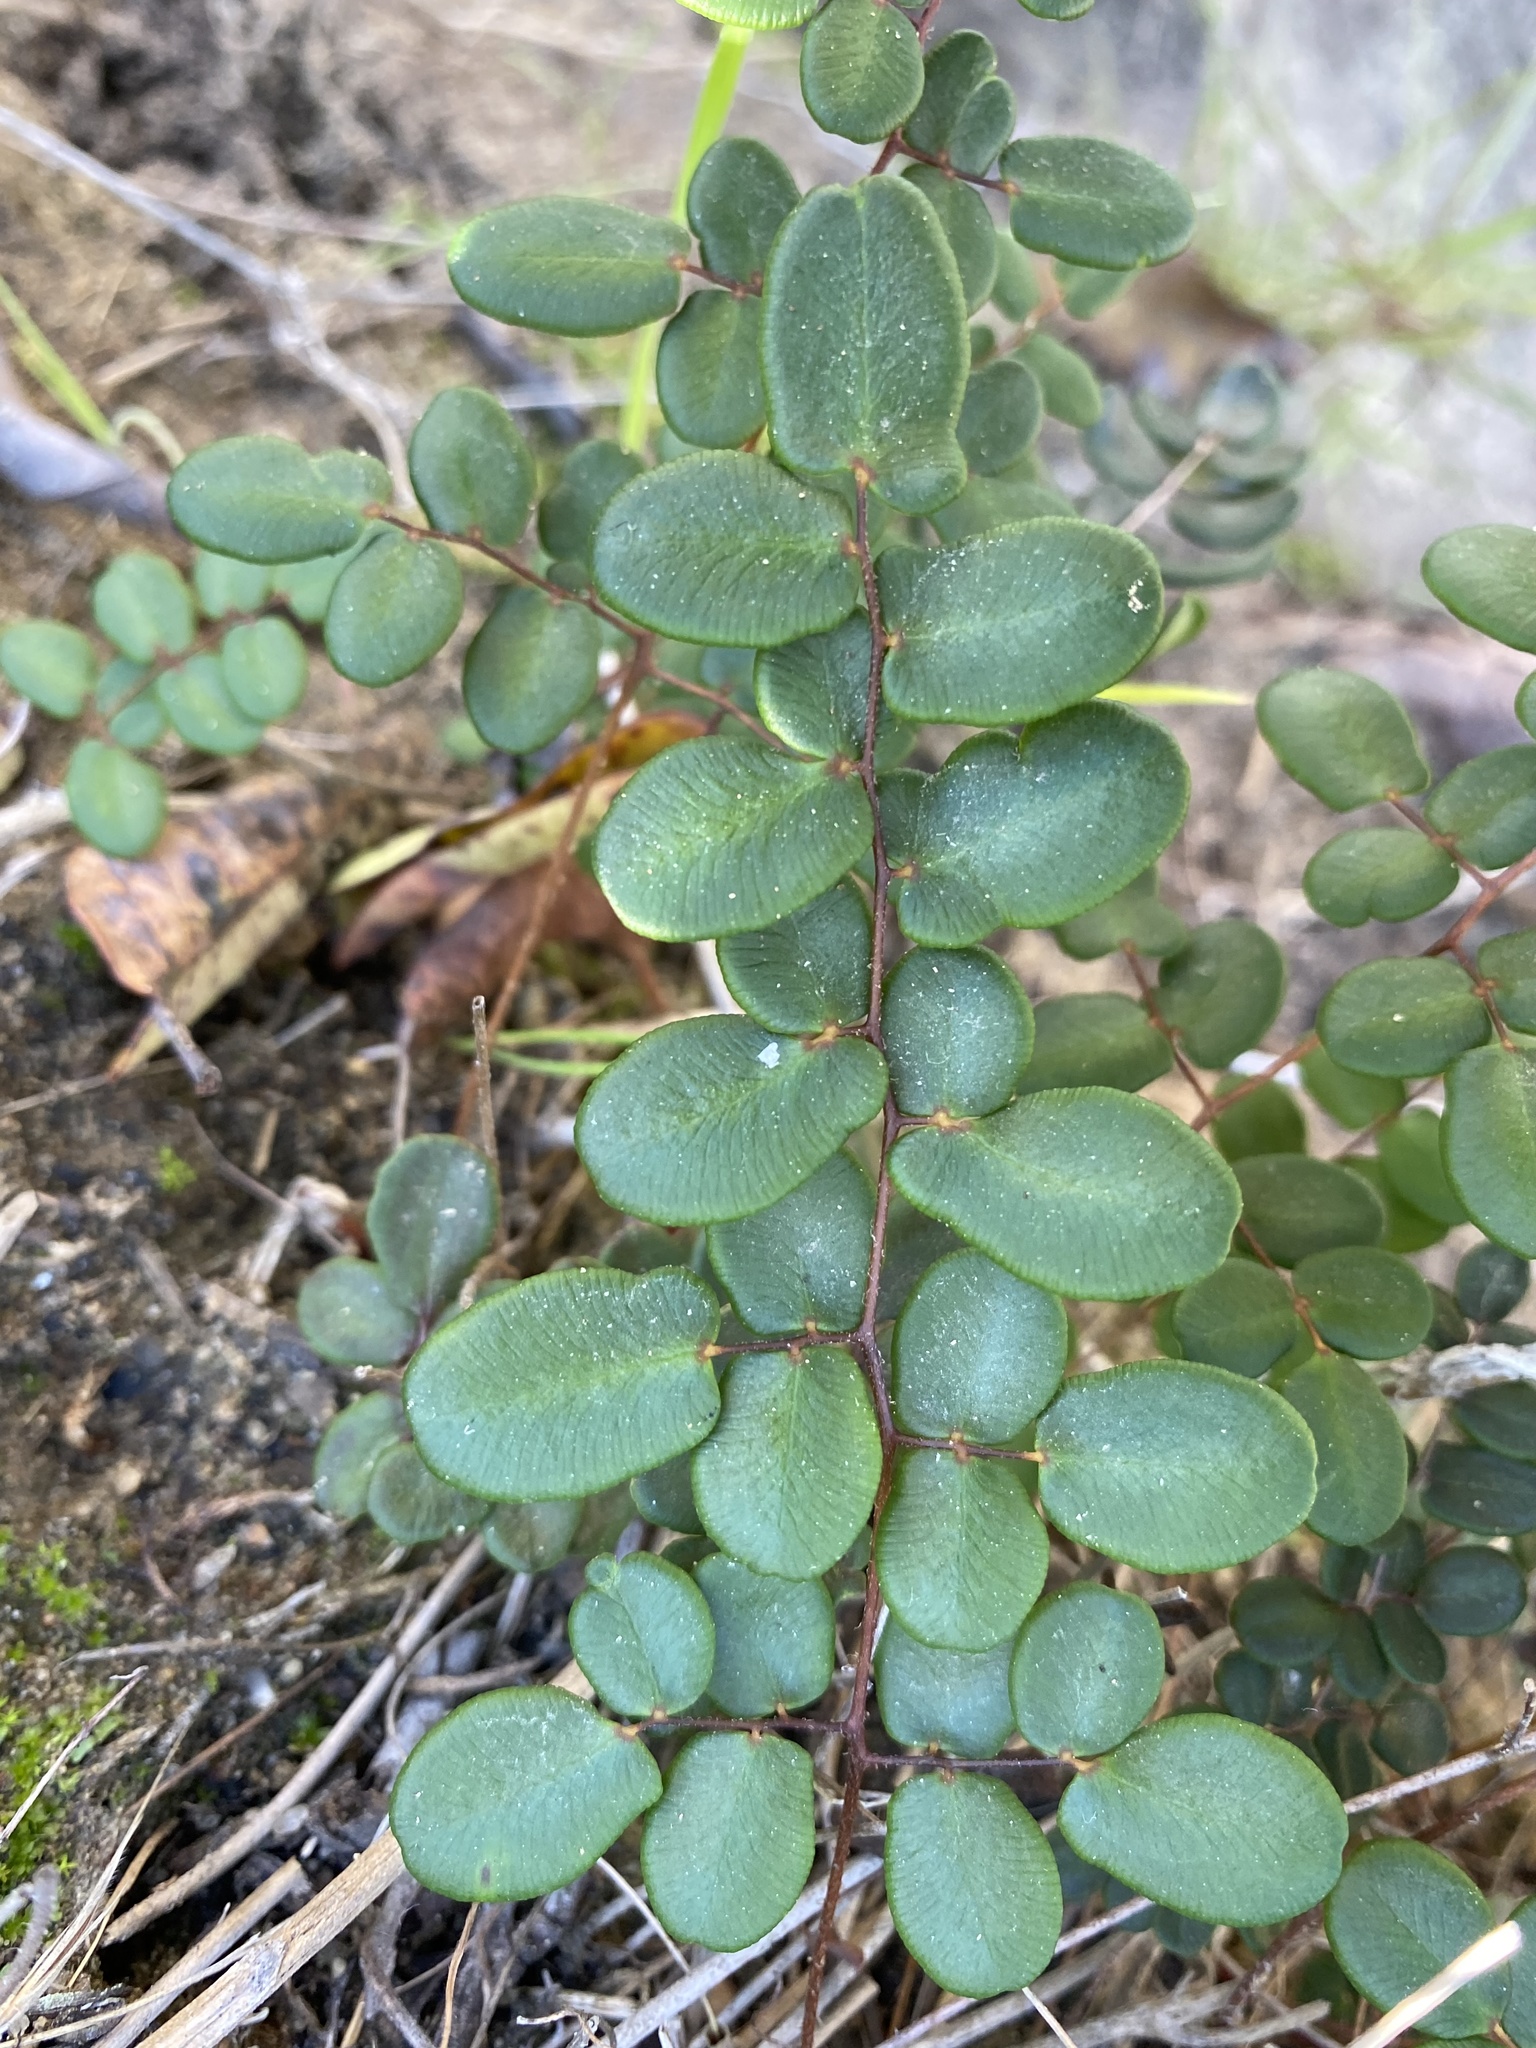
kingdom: Plantae
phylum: Tracheophyta
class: Polypodiopsida
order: Polypodiales
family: Pteridaceae
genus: Pellaea
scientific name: Pellaea andromedifolia
